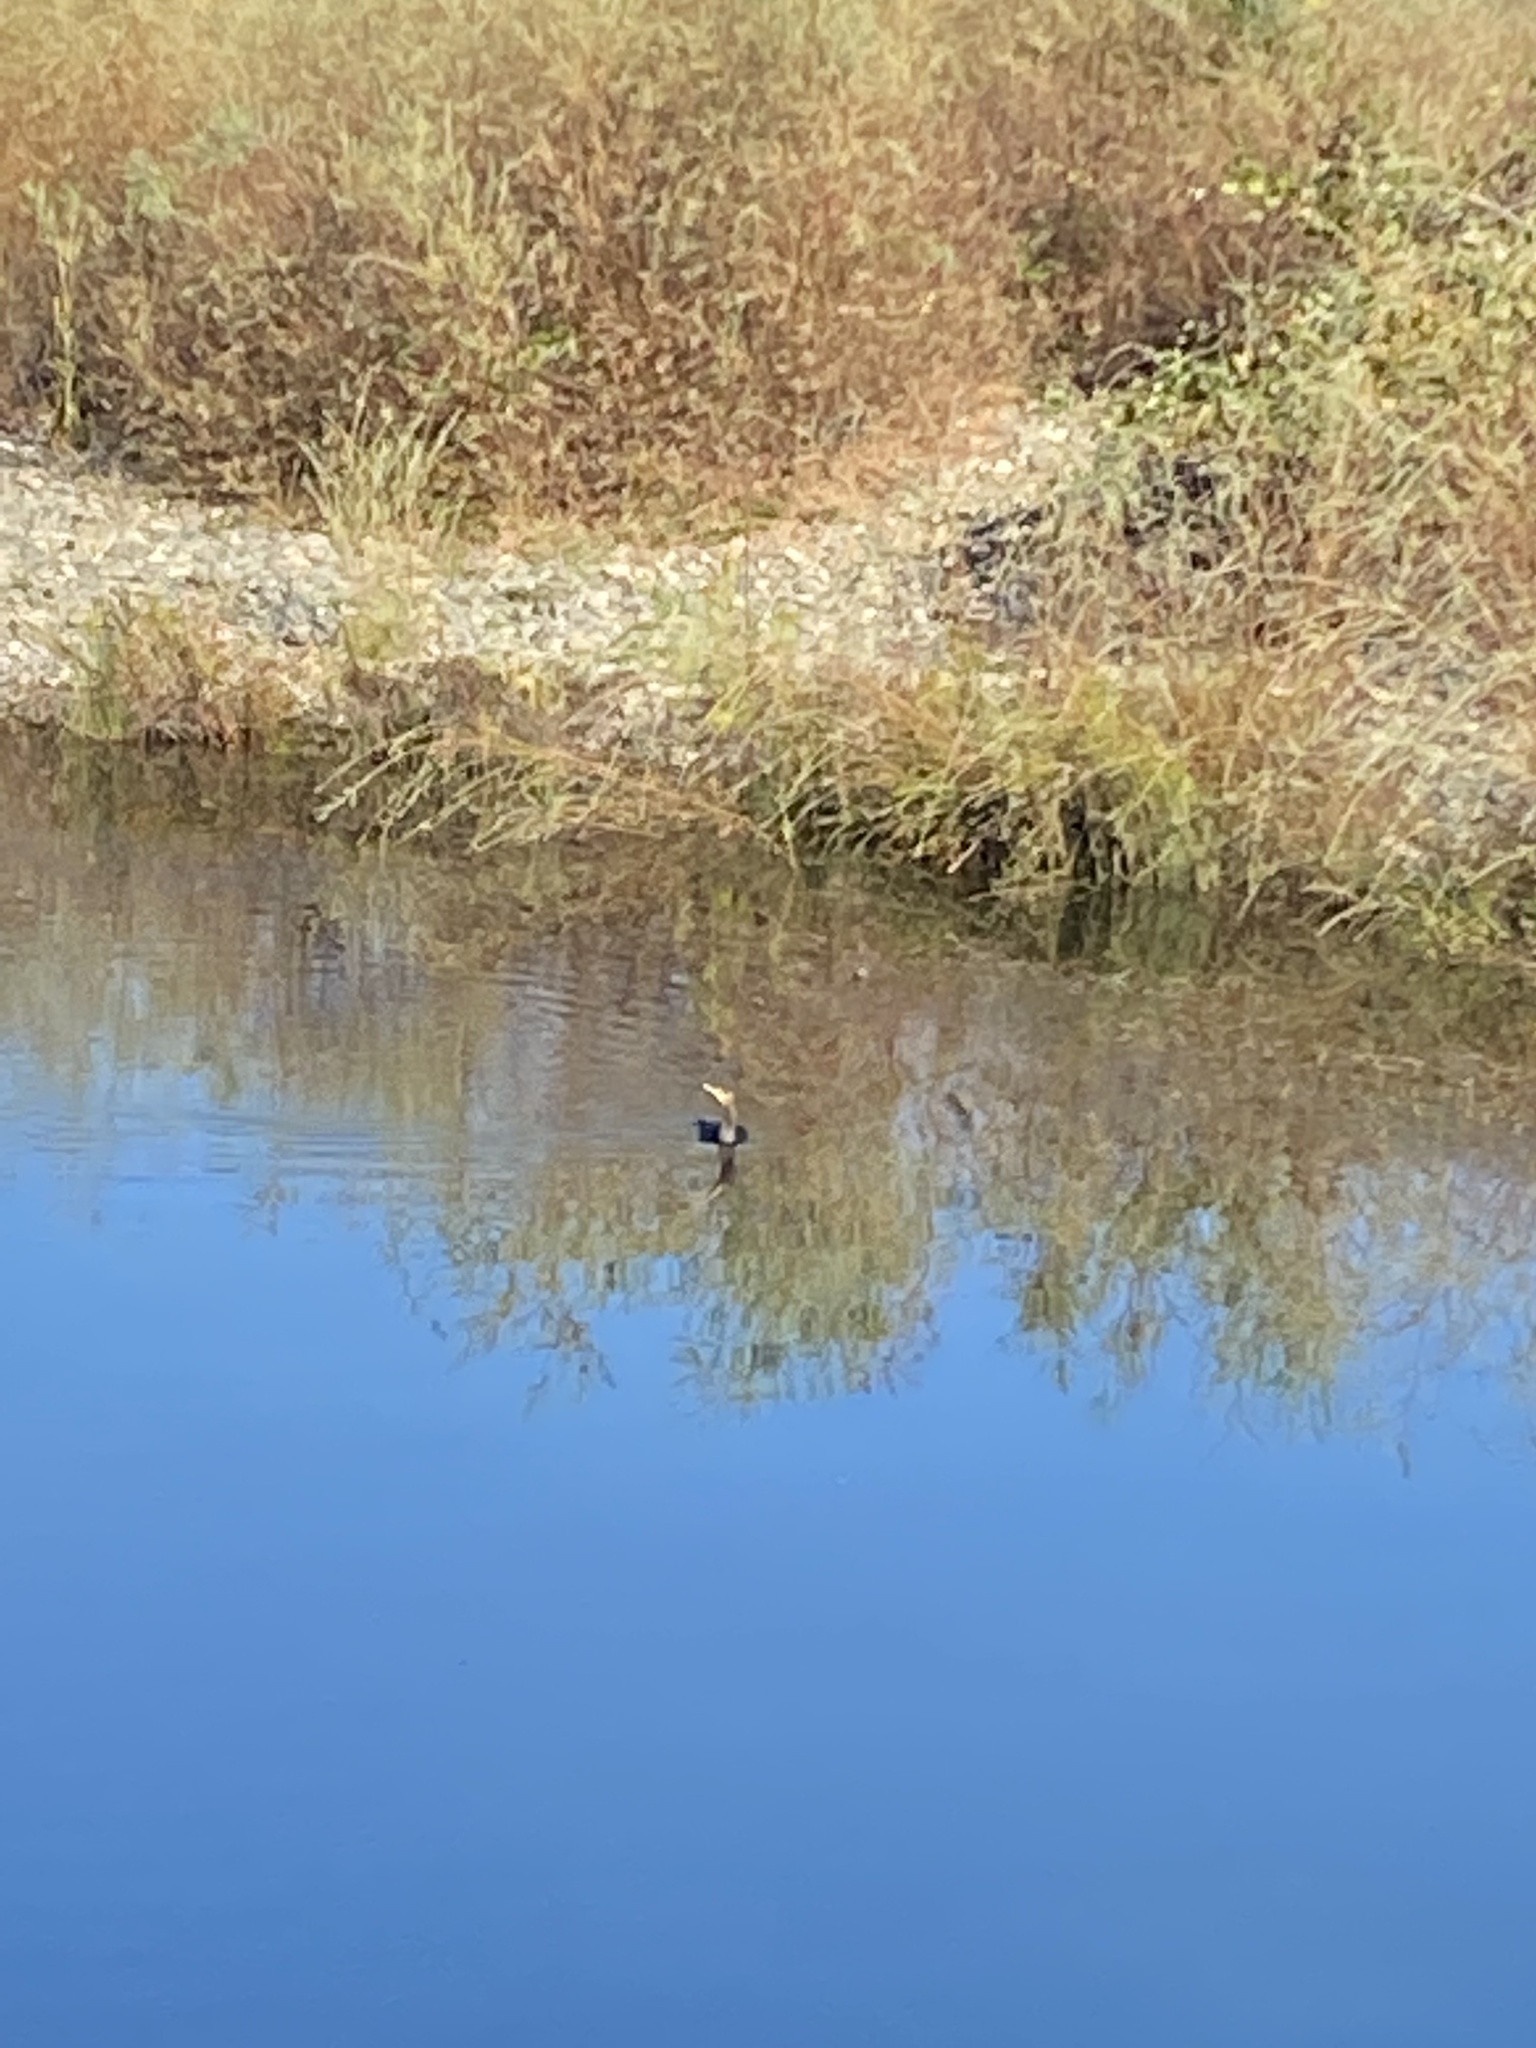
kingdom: Animalia
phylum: Chordata
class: Aves
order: Suliformes
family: Phalacrocoracidae
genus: Phalacrocorax
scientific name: Phalacrocorax auritus
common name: Double-crested cormorant
